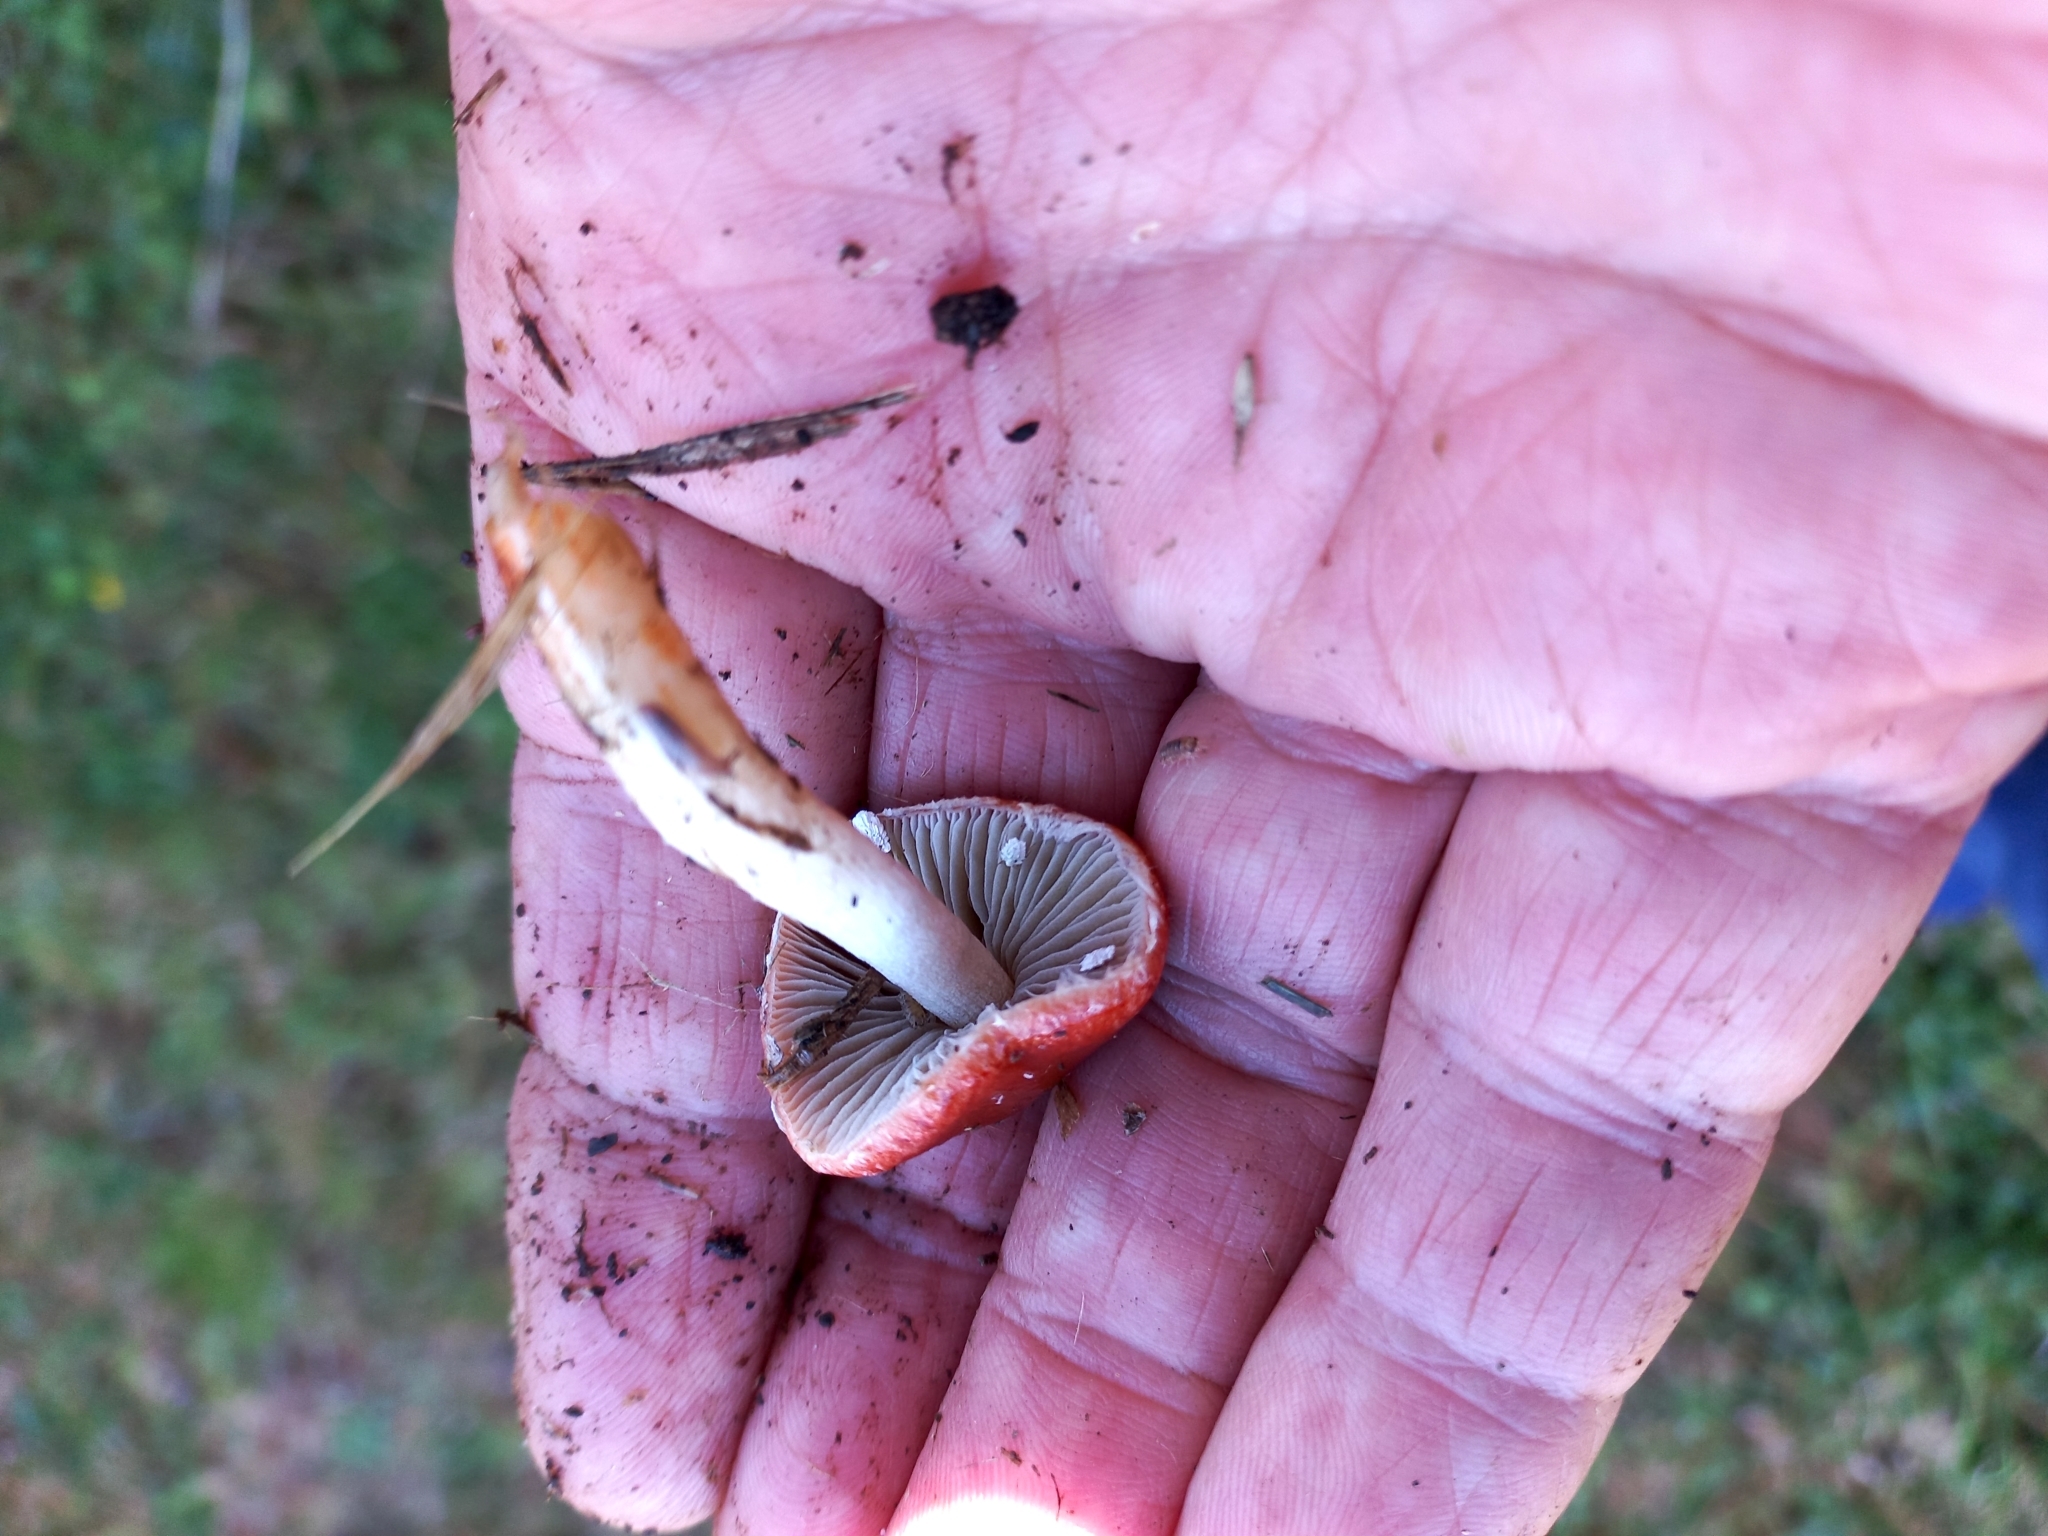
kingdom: Fungi
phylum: Basidiomycota
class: Agaricomycetes
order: Agaricales
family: Strophariaceae
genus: Leratiomyces
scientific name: Leratiomyces ceres
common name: Redlead roundhead
